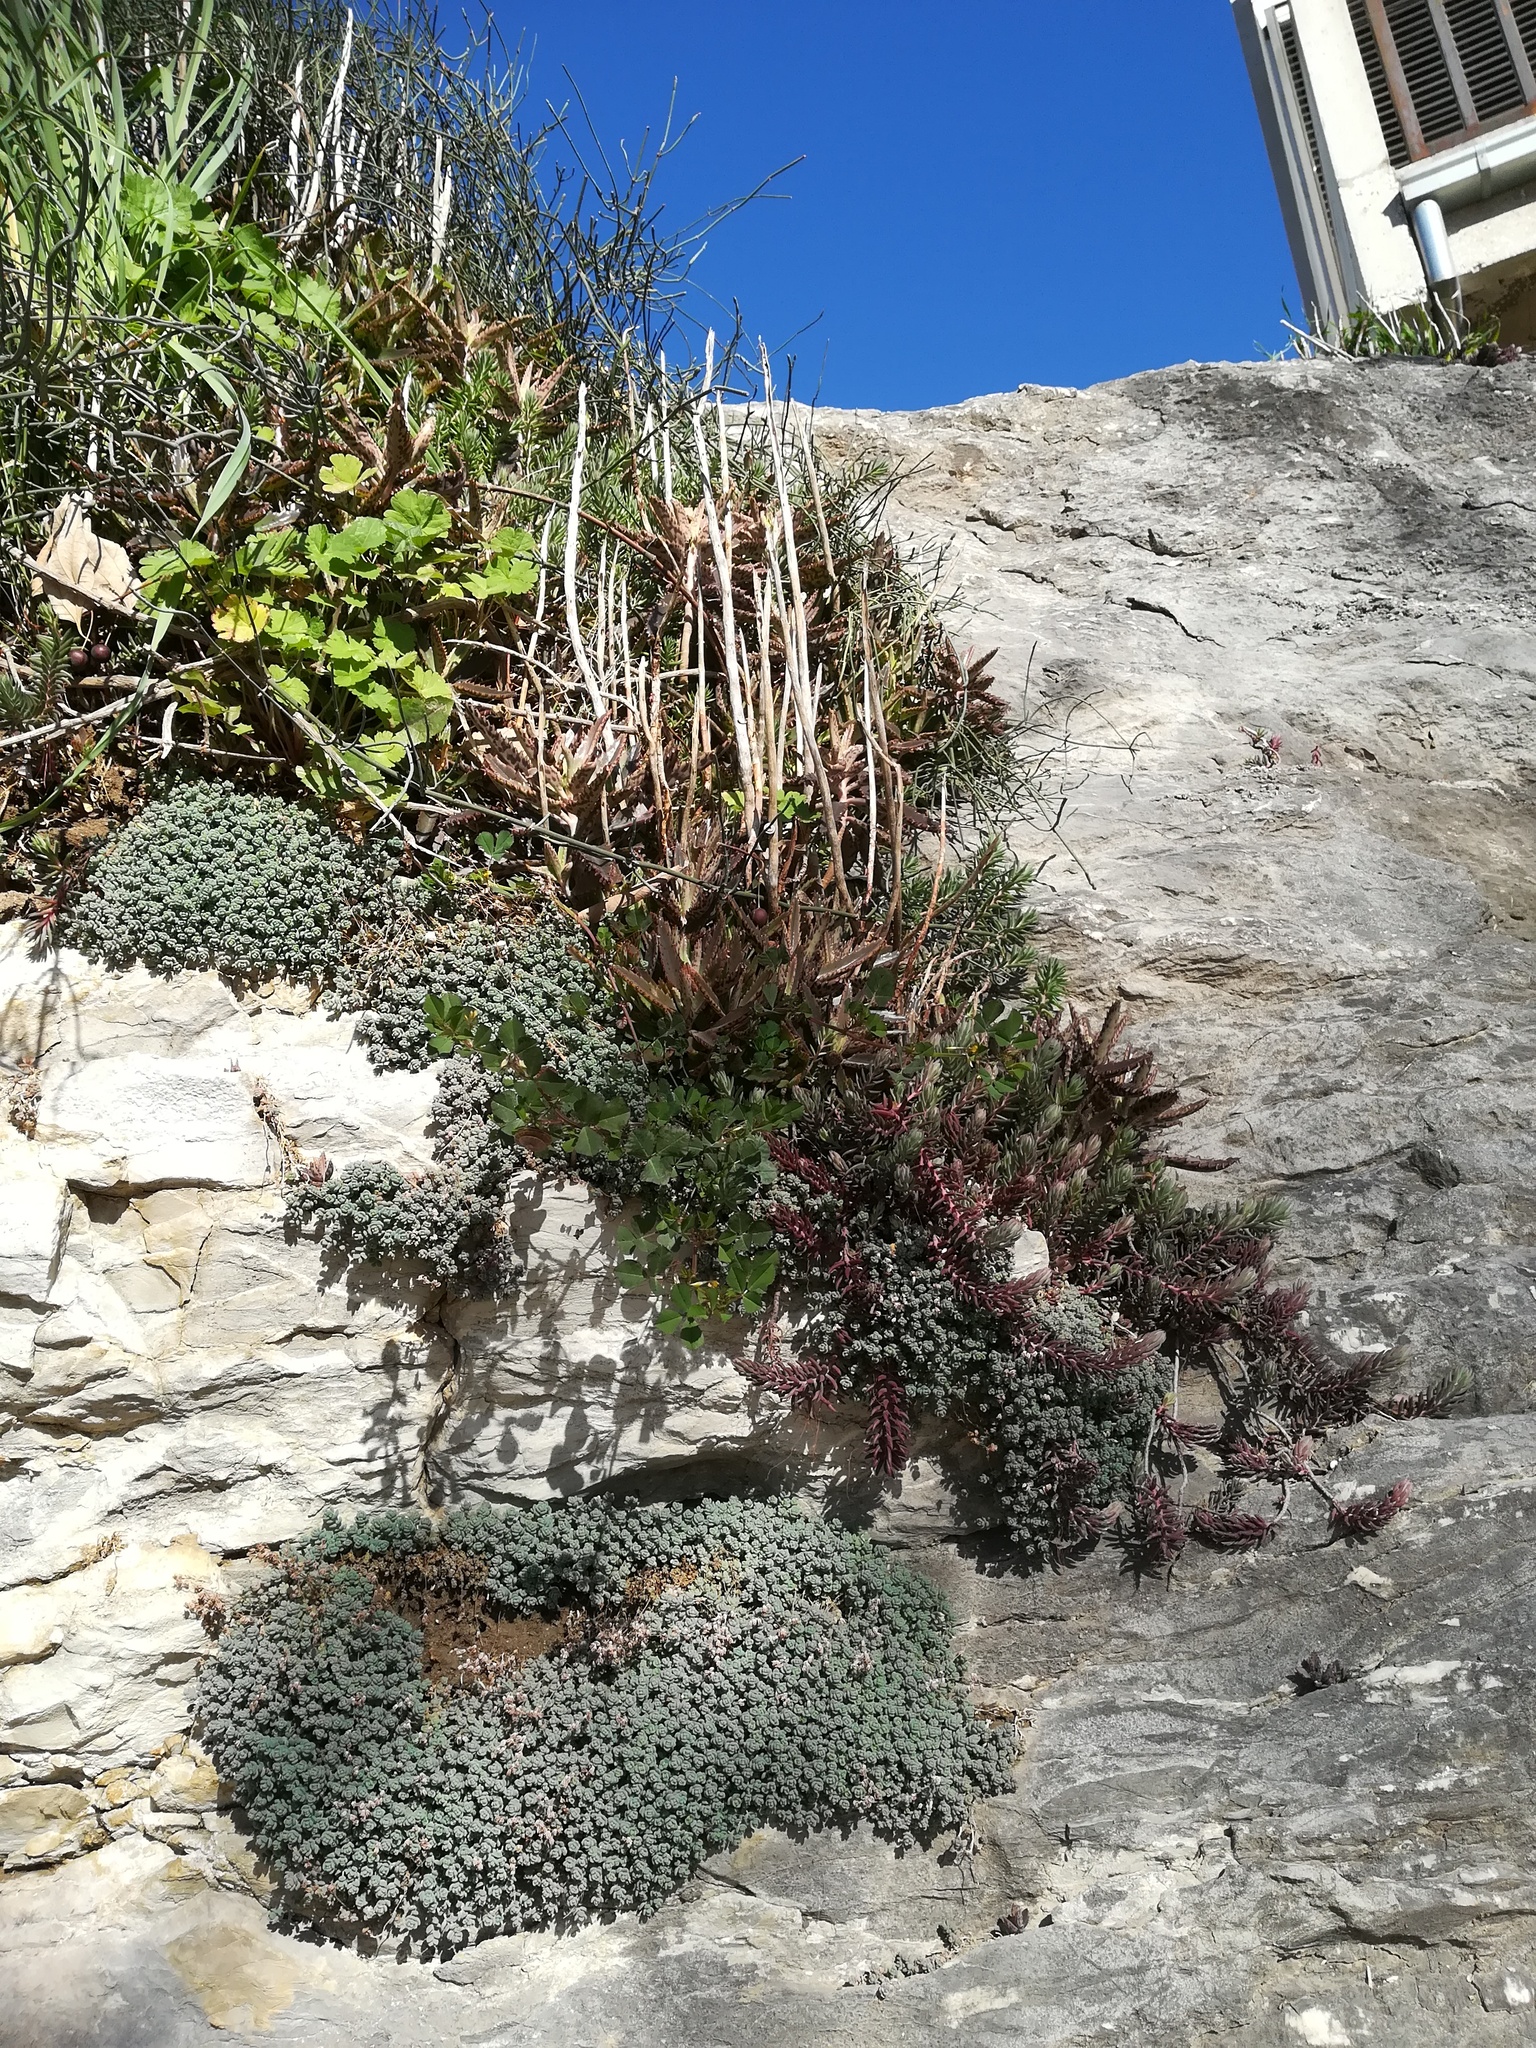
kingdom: Plantae
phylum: Tracheophyta
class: Magnoliopsida
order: Saxifragales
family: Crassulaceae
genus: Kalanchoe
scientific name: Kalanchoe houghtonii
